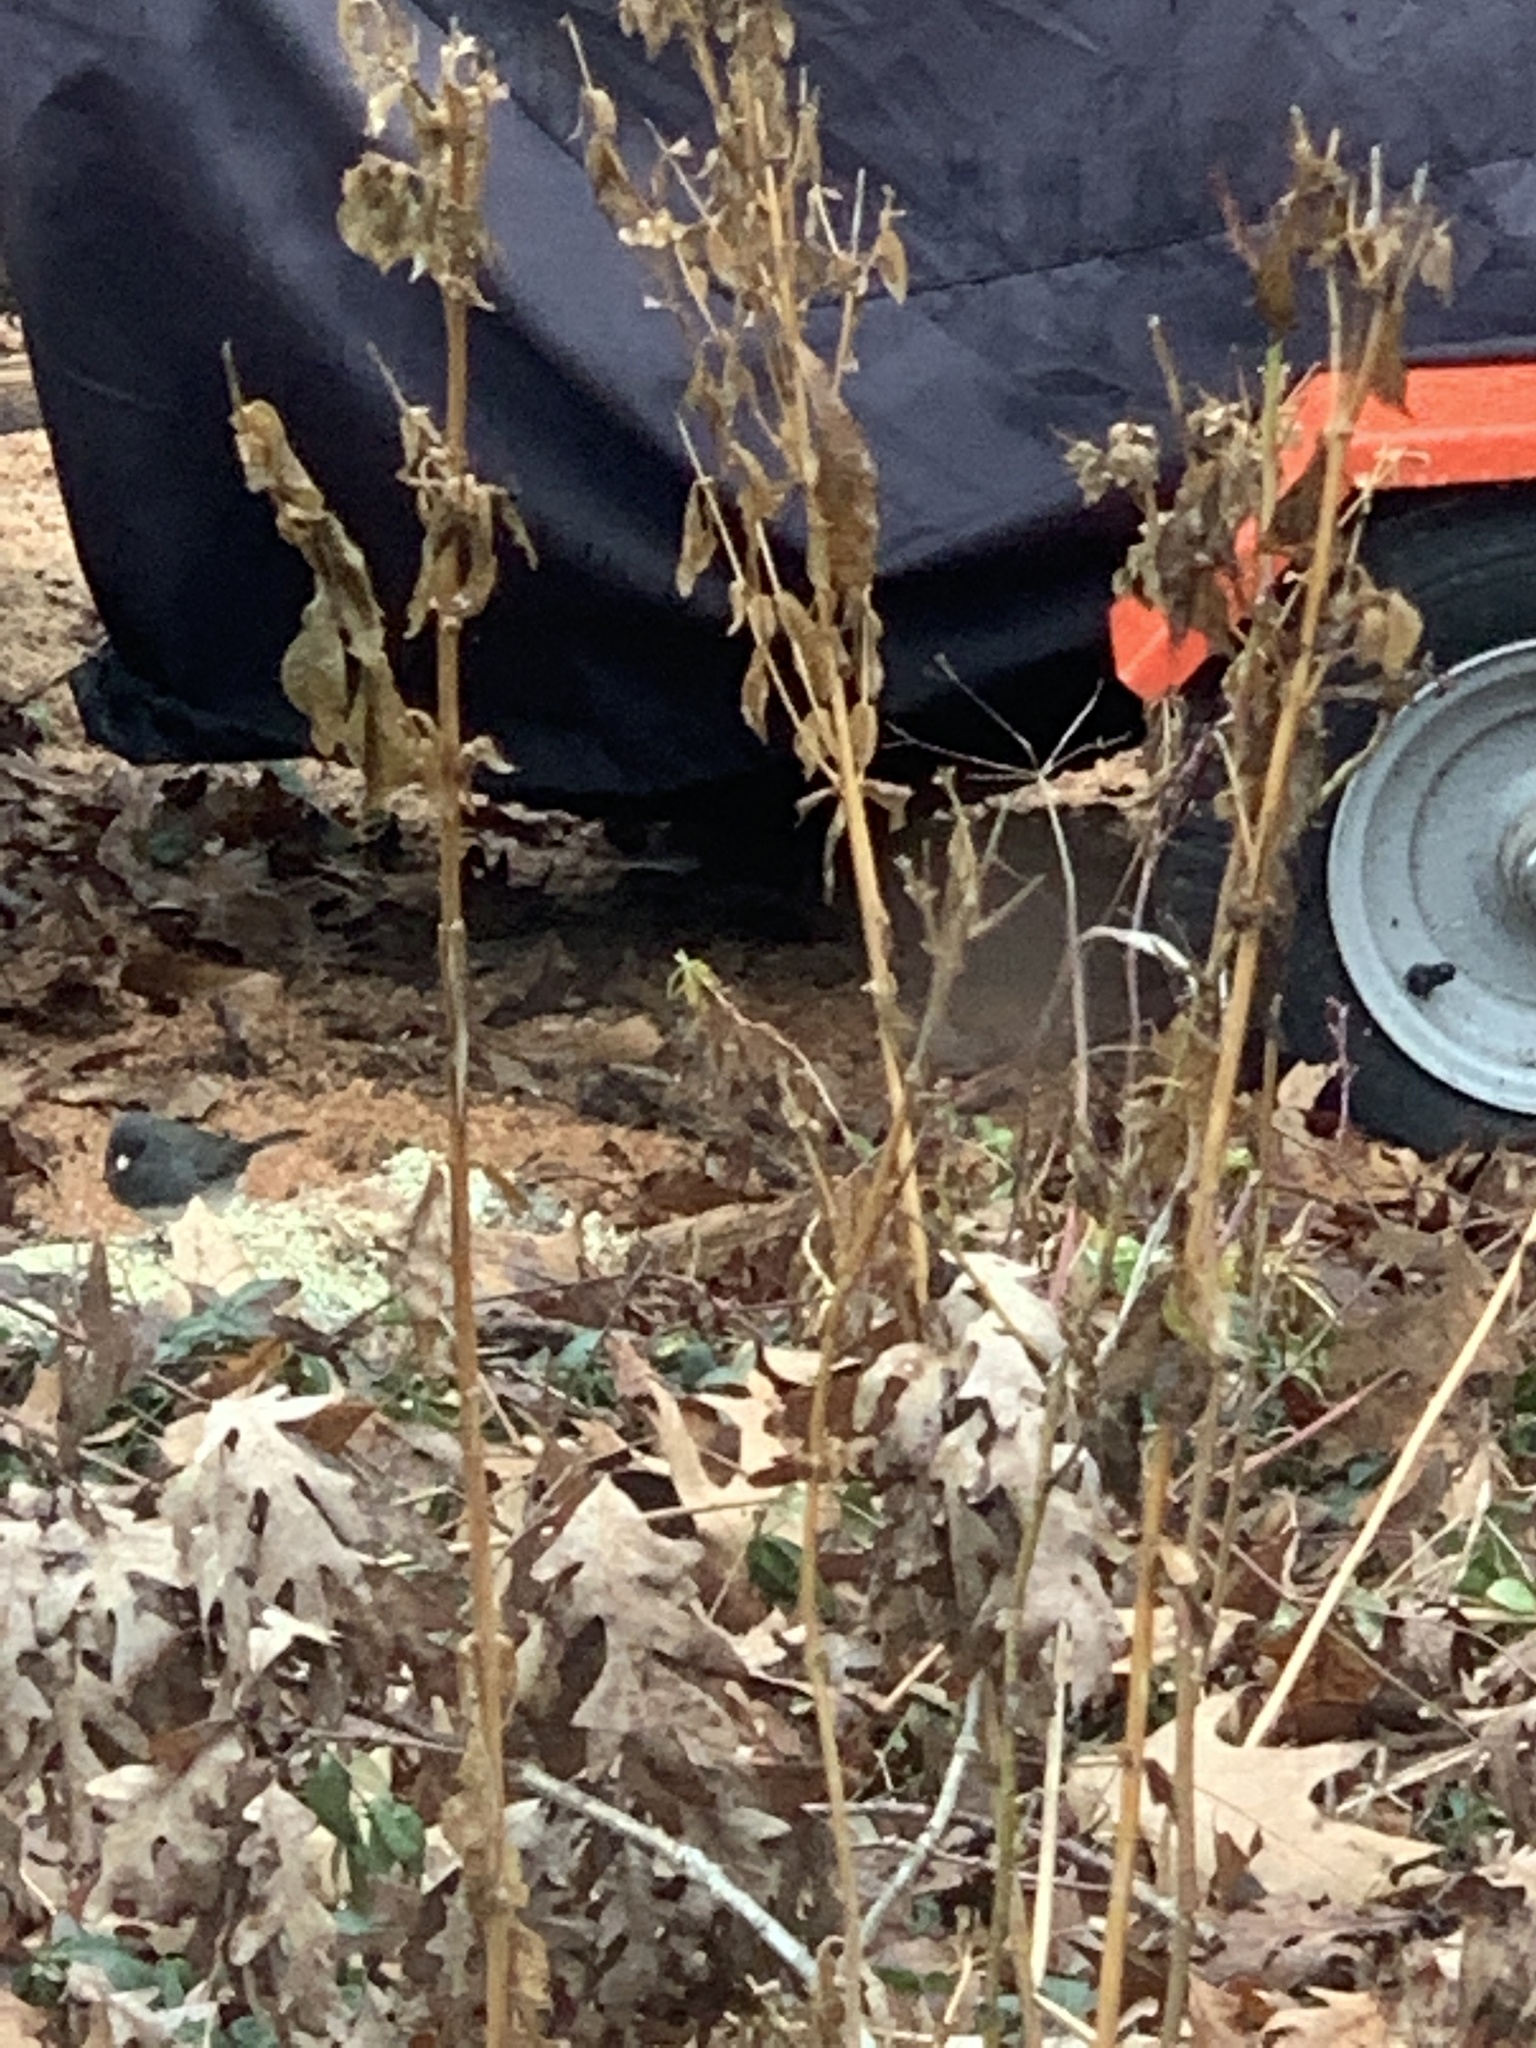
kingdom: Animalia
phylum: Chordata
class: Aves
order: Passeriformes
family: Passerellidae
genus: Junco
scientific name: Junco hyemalis
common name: Dark-eyed junco
